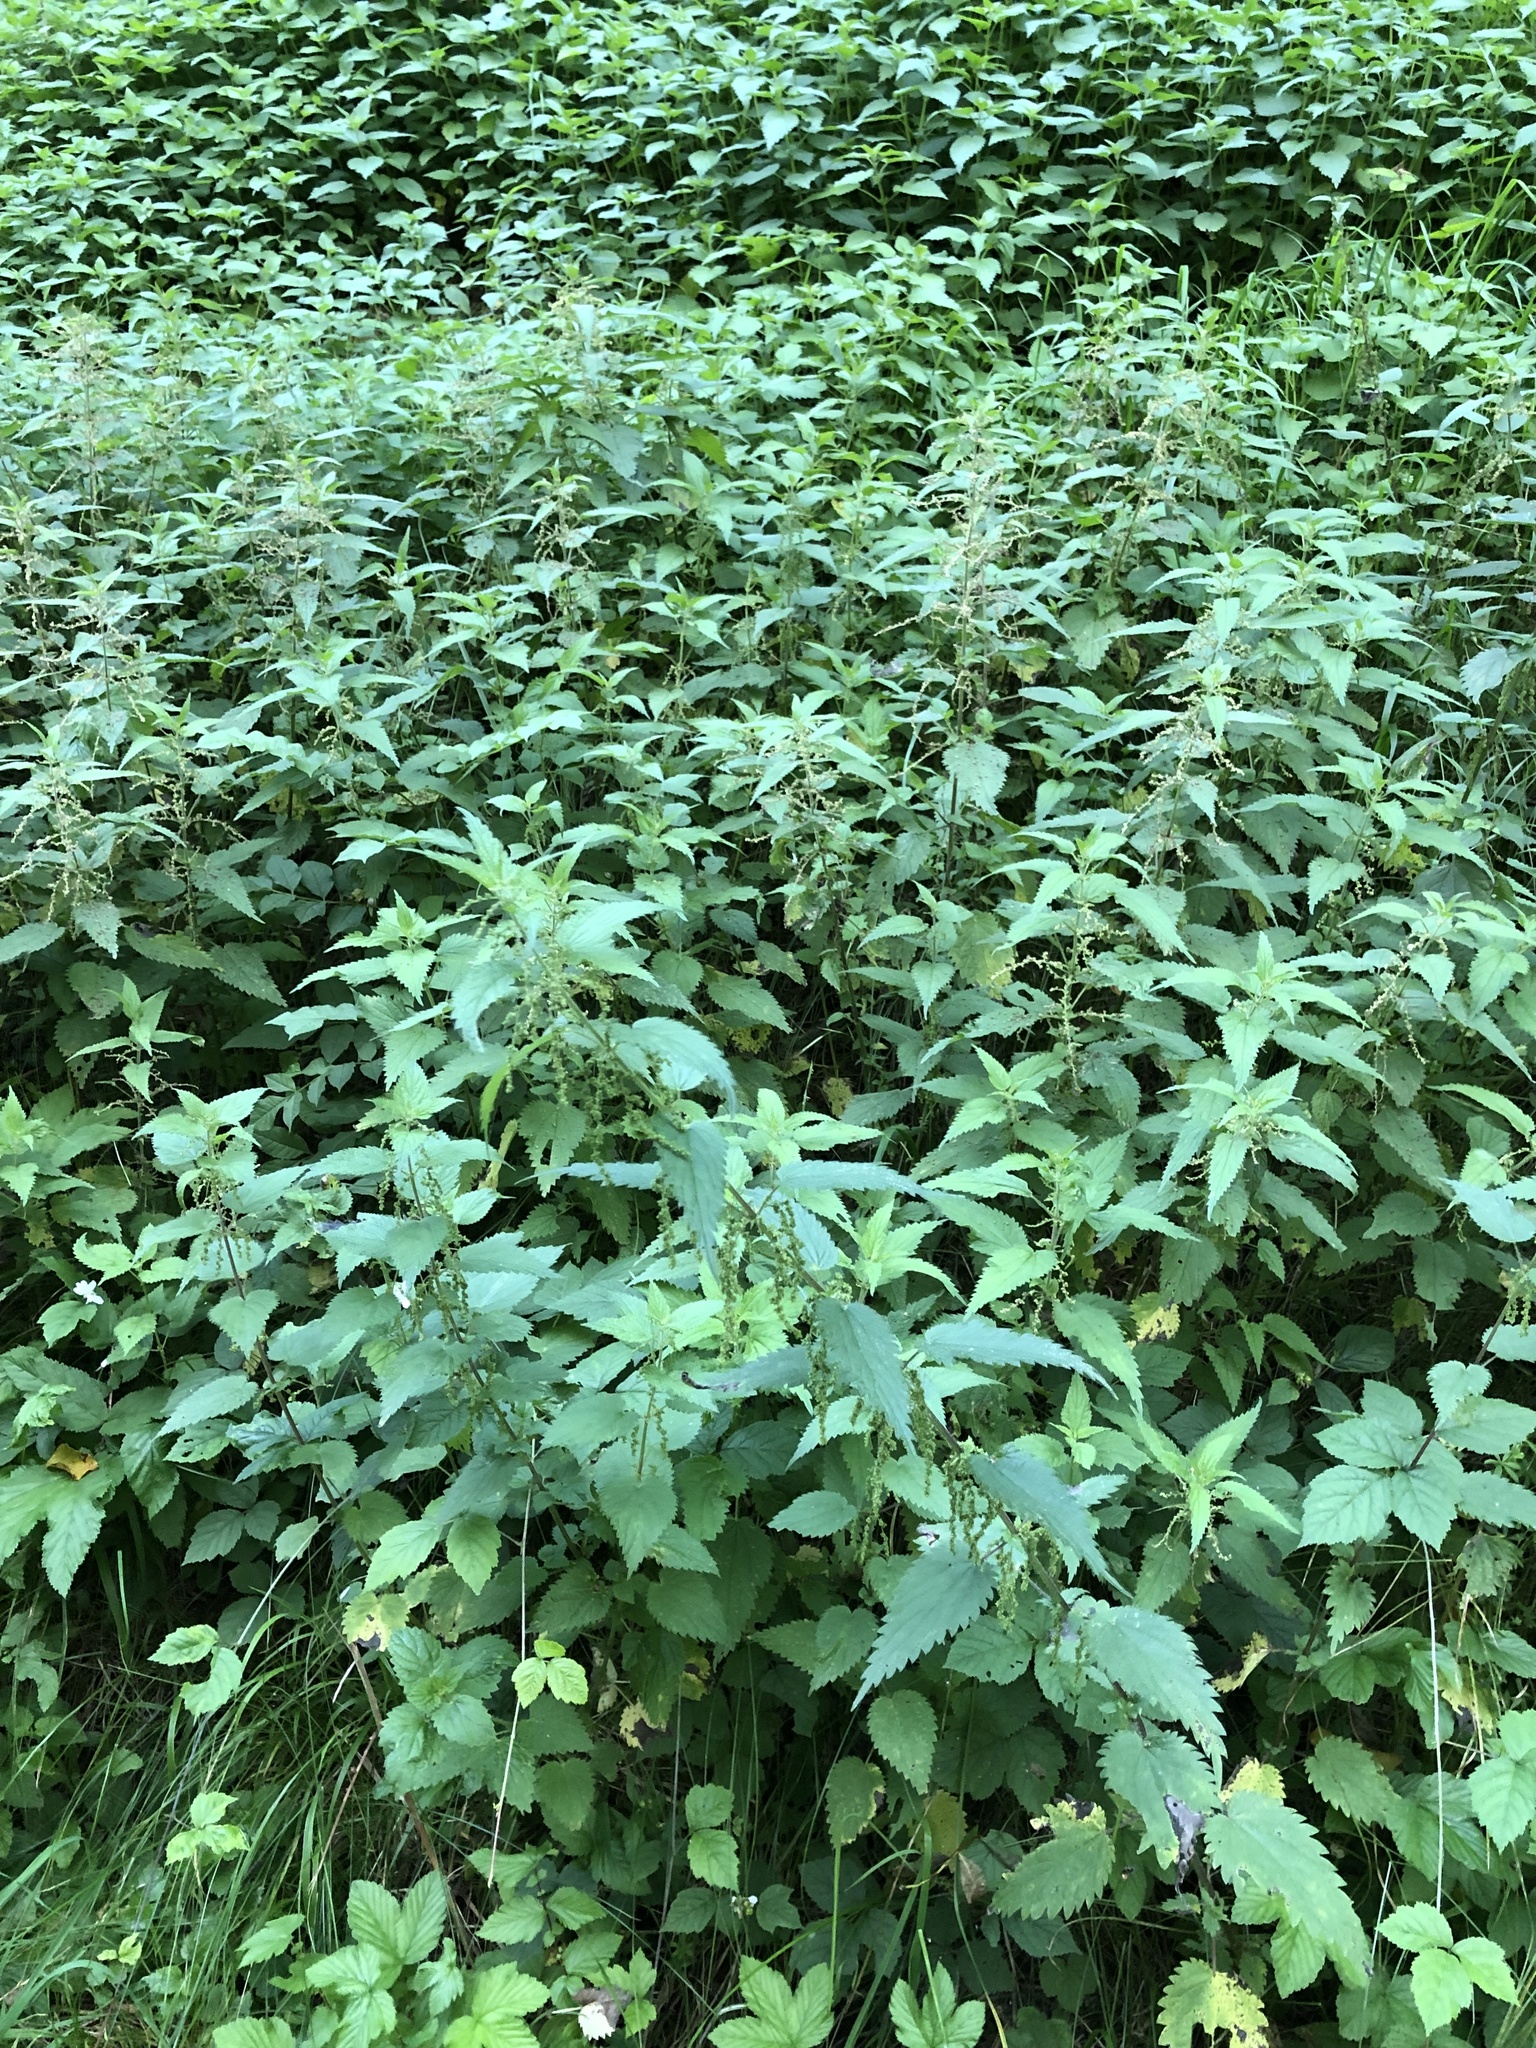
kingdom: Plantae
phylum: Tracheophyta
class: Magnoliopsida
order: Rosales
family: Urticaceae
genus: Urtica
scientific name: Urtica dioica
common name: Common nettle
